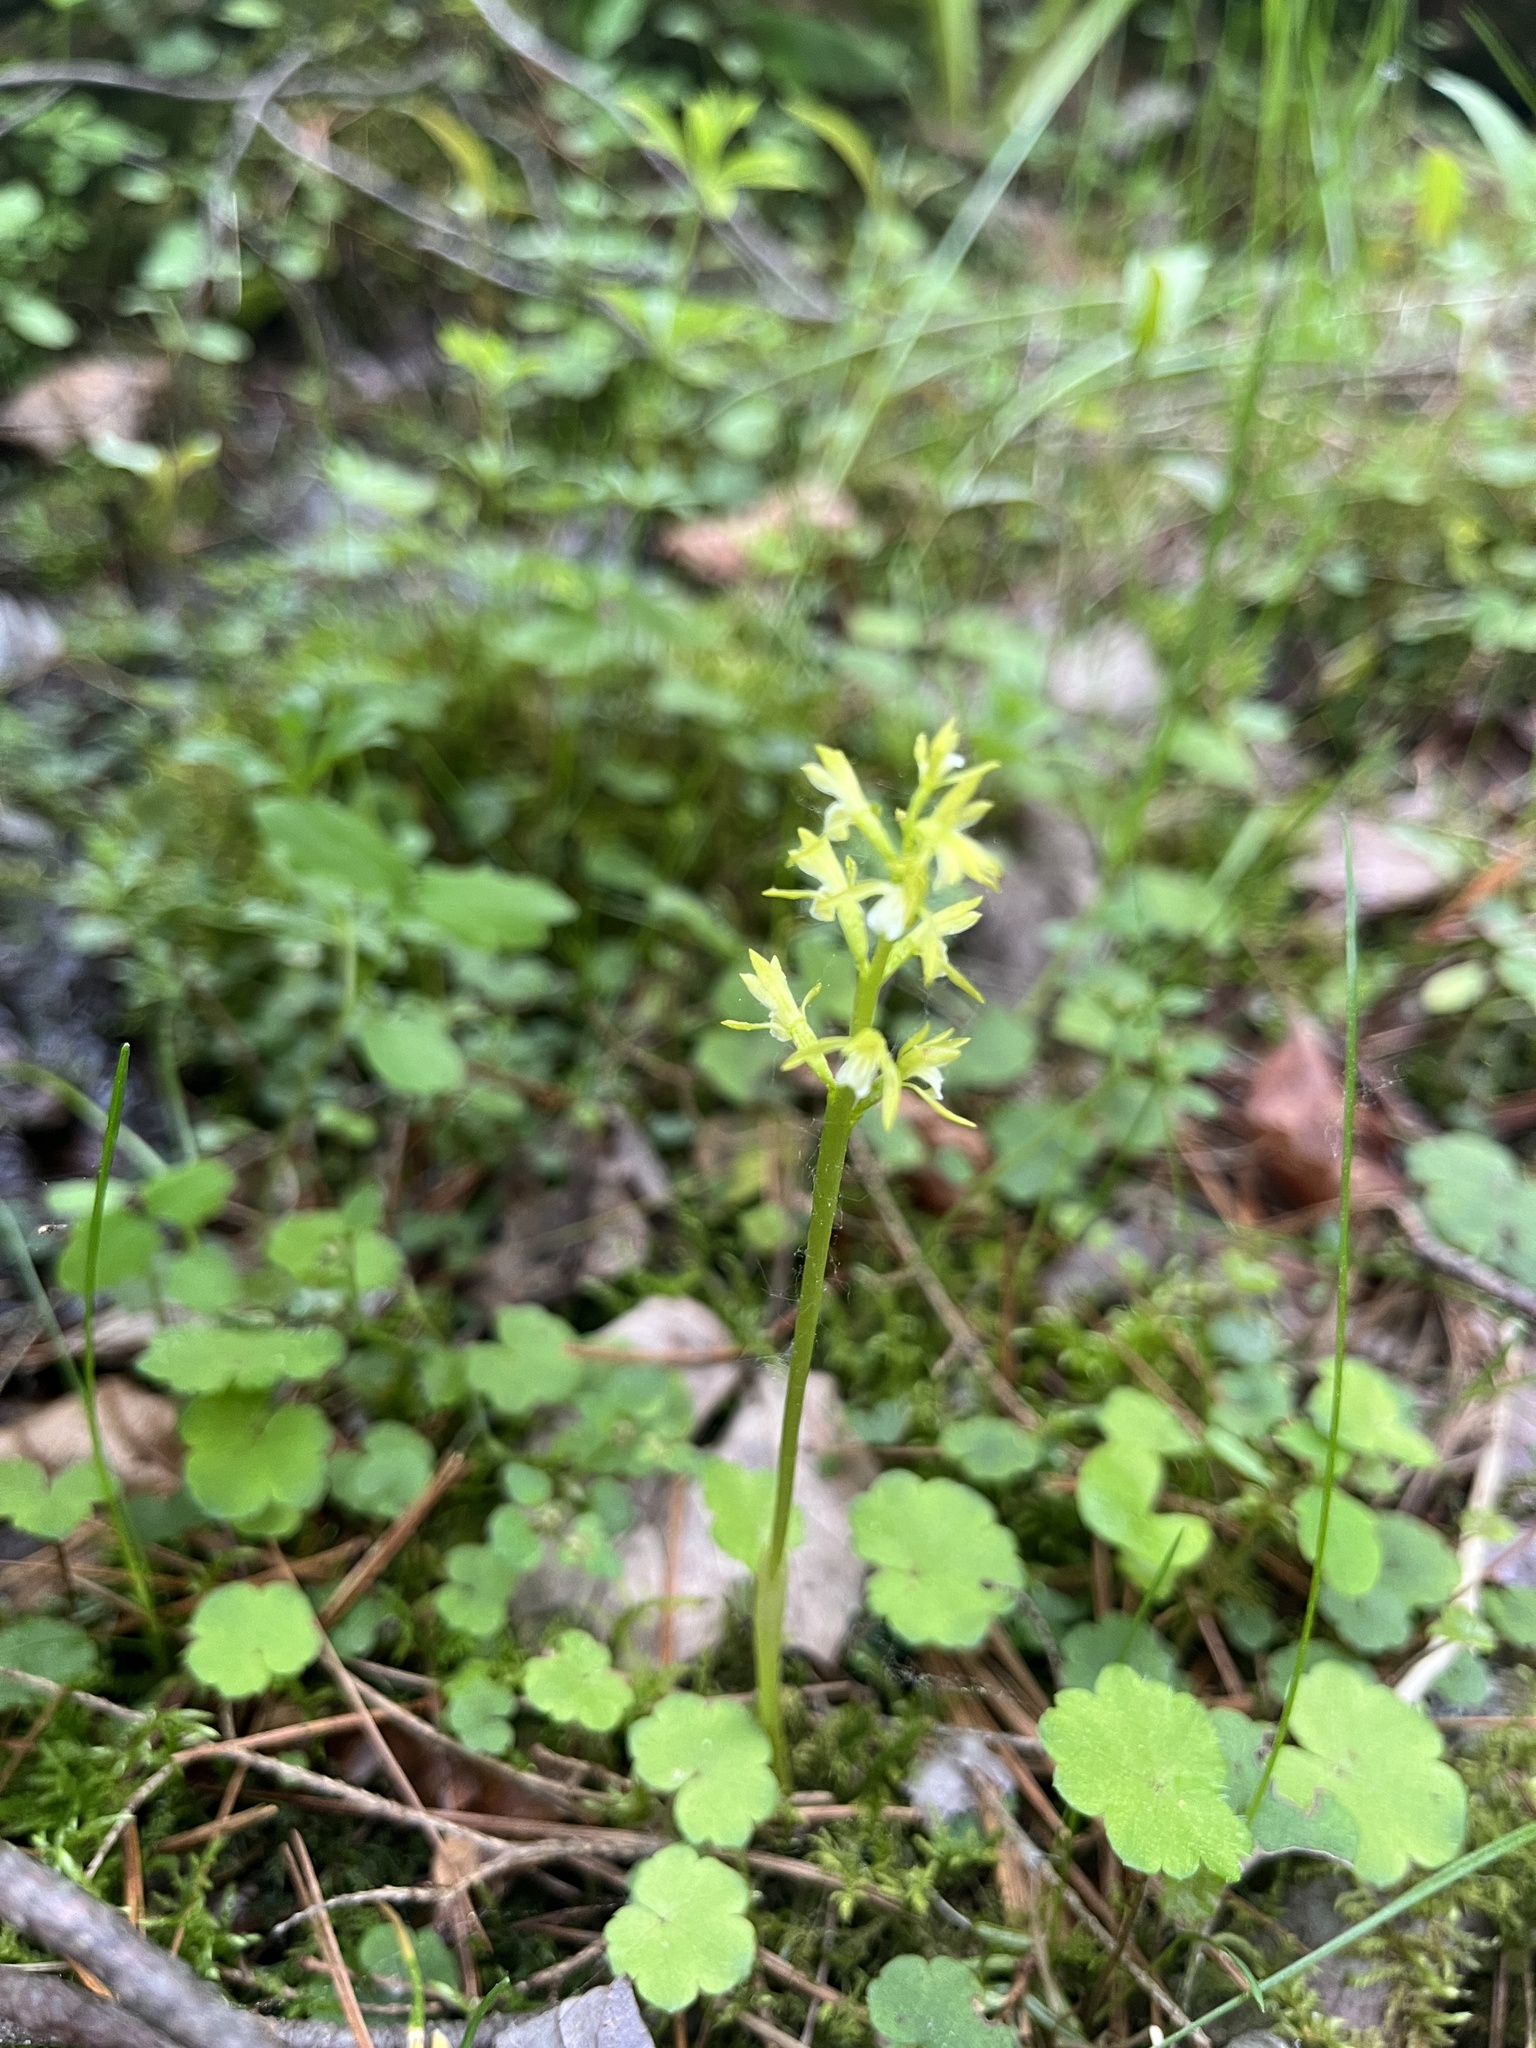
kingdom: Plantae
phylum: Tracheophyta
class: Liliopsida
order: Asparagales
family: Orchidaceae
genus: Corallorhiza
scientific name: Corallorhiza trifida
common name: Yellow coralroot
